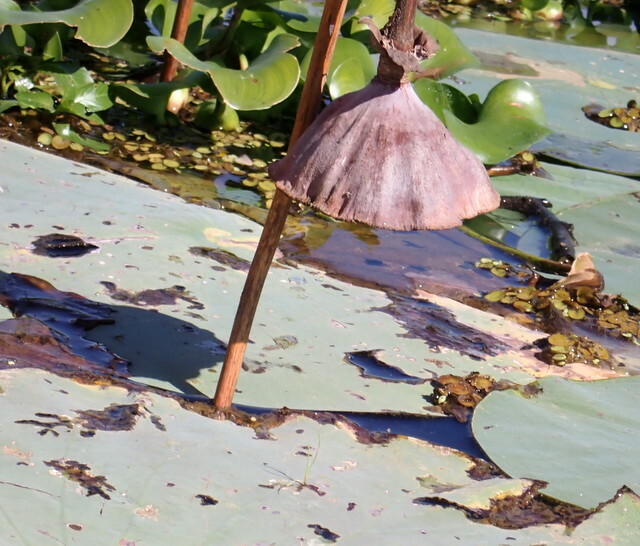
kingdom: Plantae
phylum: Tracheophyta
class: Magnoliopsida
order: Proteales
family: Nelumbonaceae
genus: Nelumbo
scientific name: Nelumbo lutea
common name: American lotus
